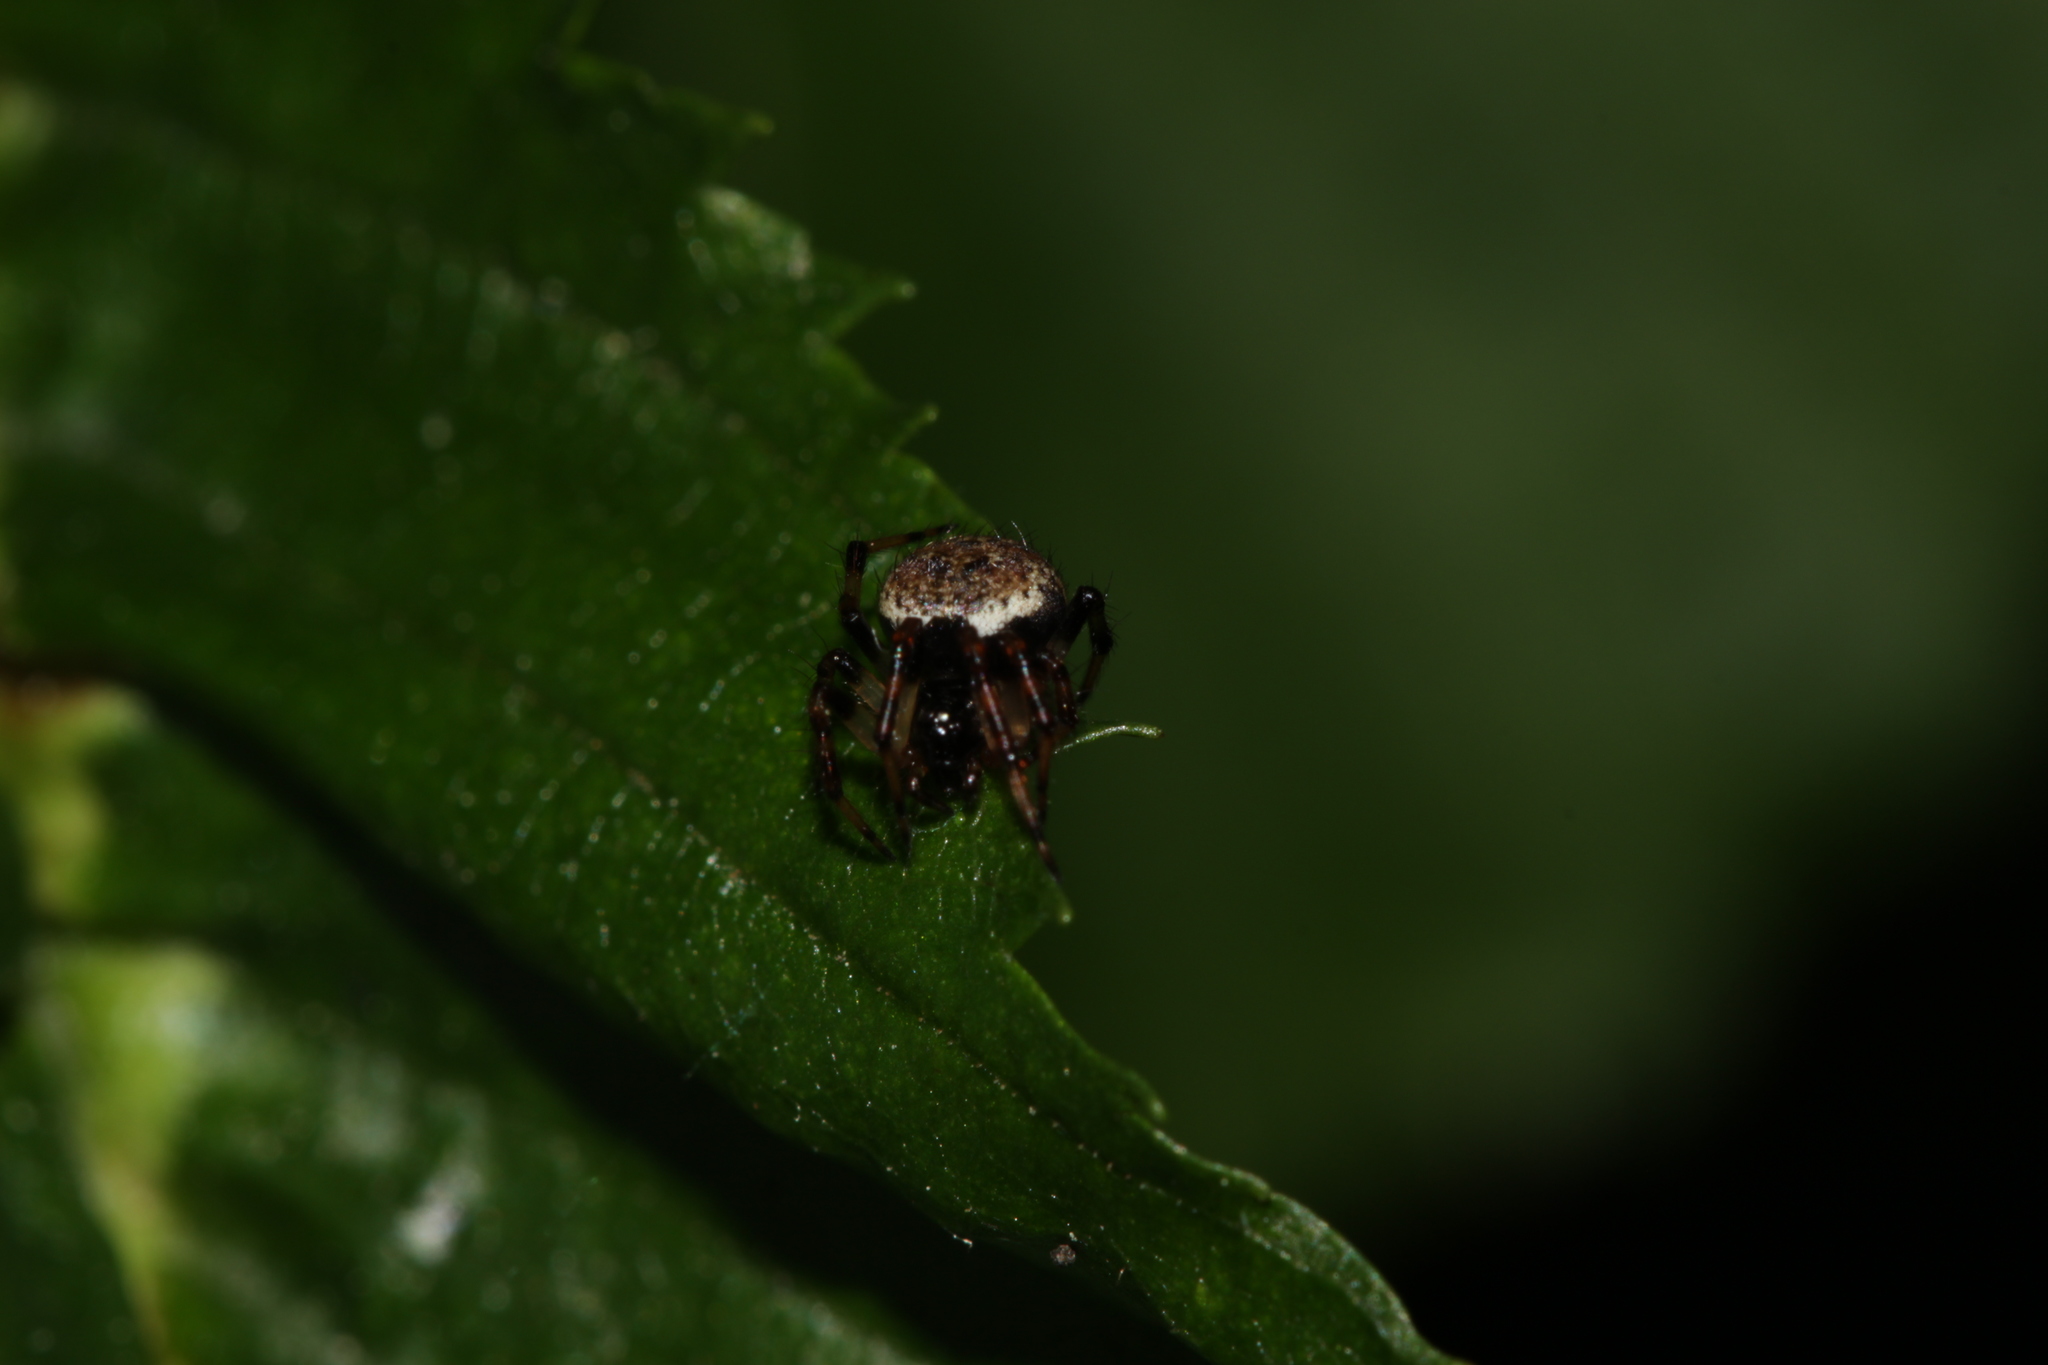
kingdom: Animalia
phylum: Arthropoda
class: Arachnida
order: Araneae
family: Theridiidae
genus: Dipoena
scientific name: Dipoena melanogaster
